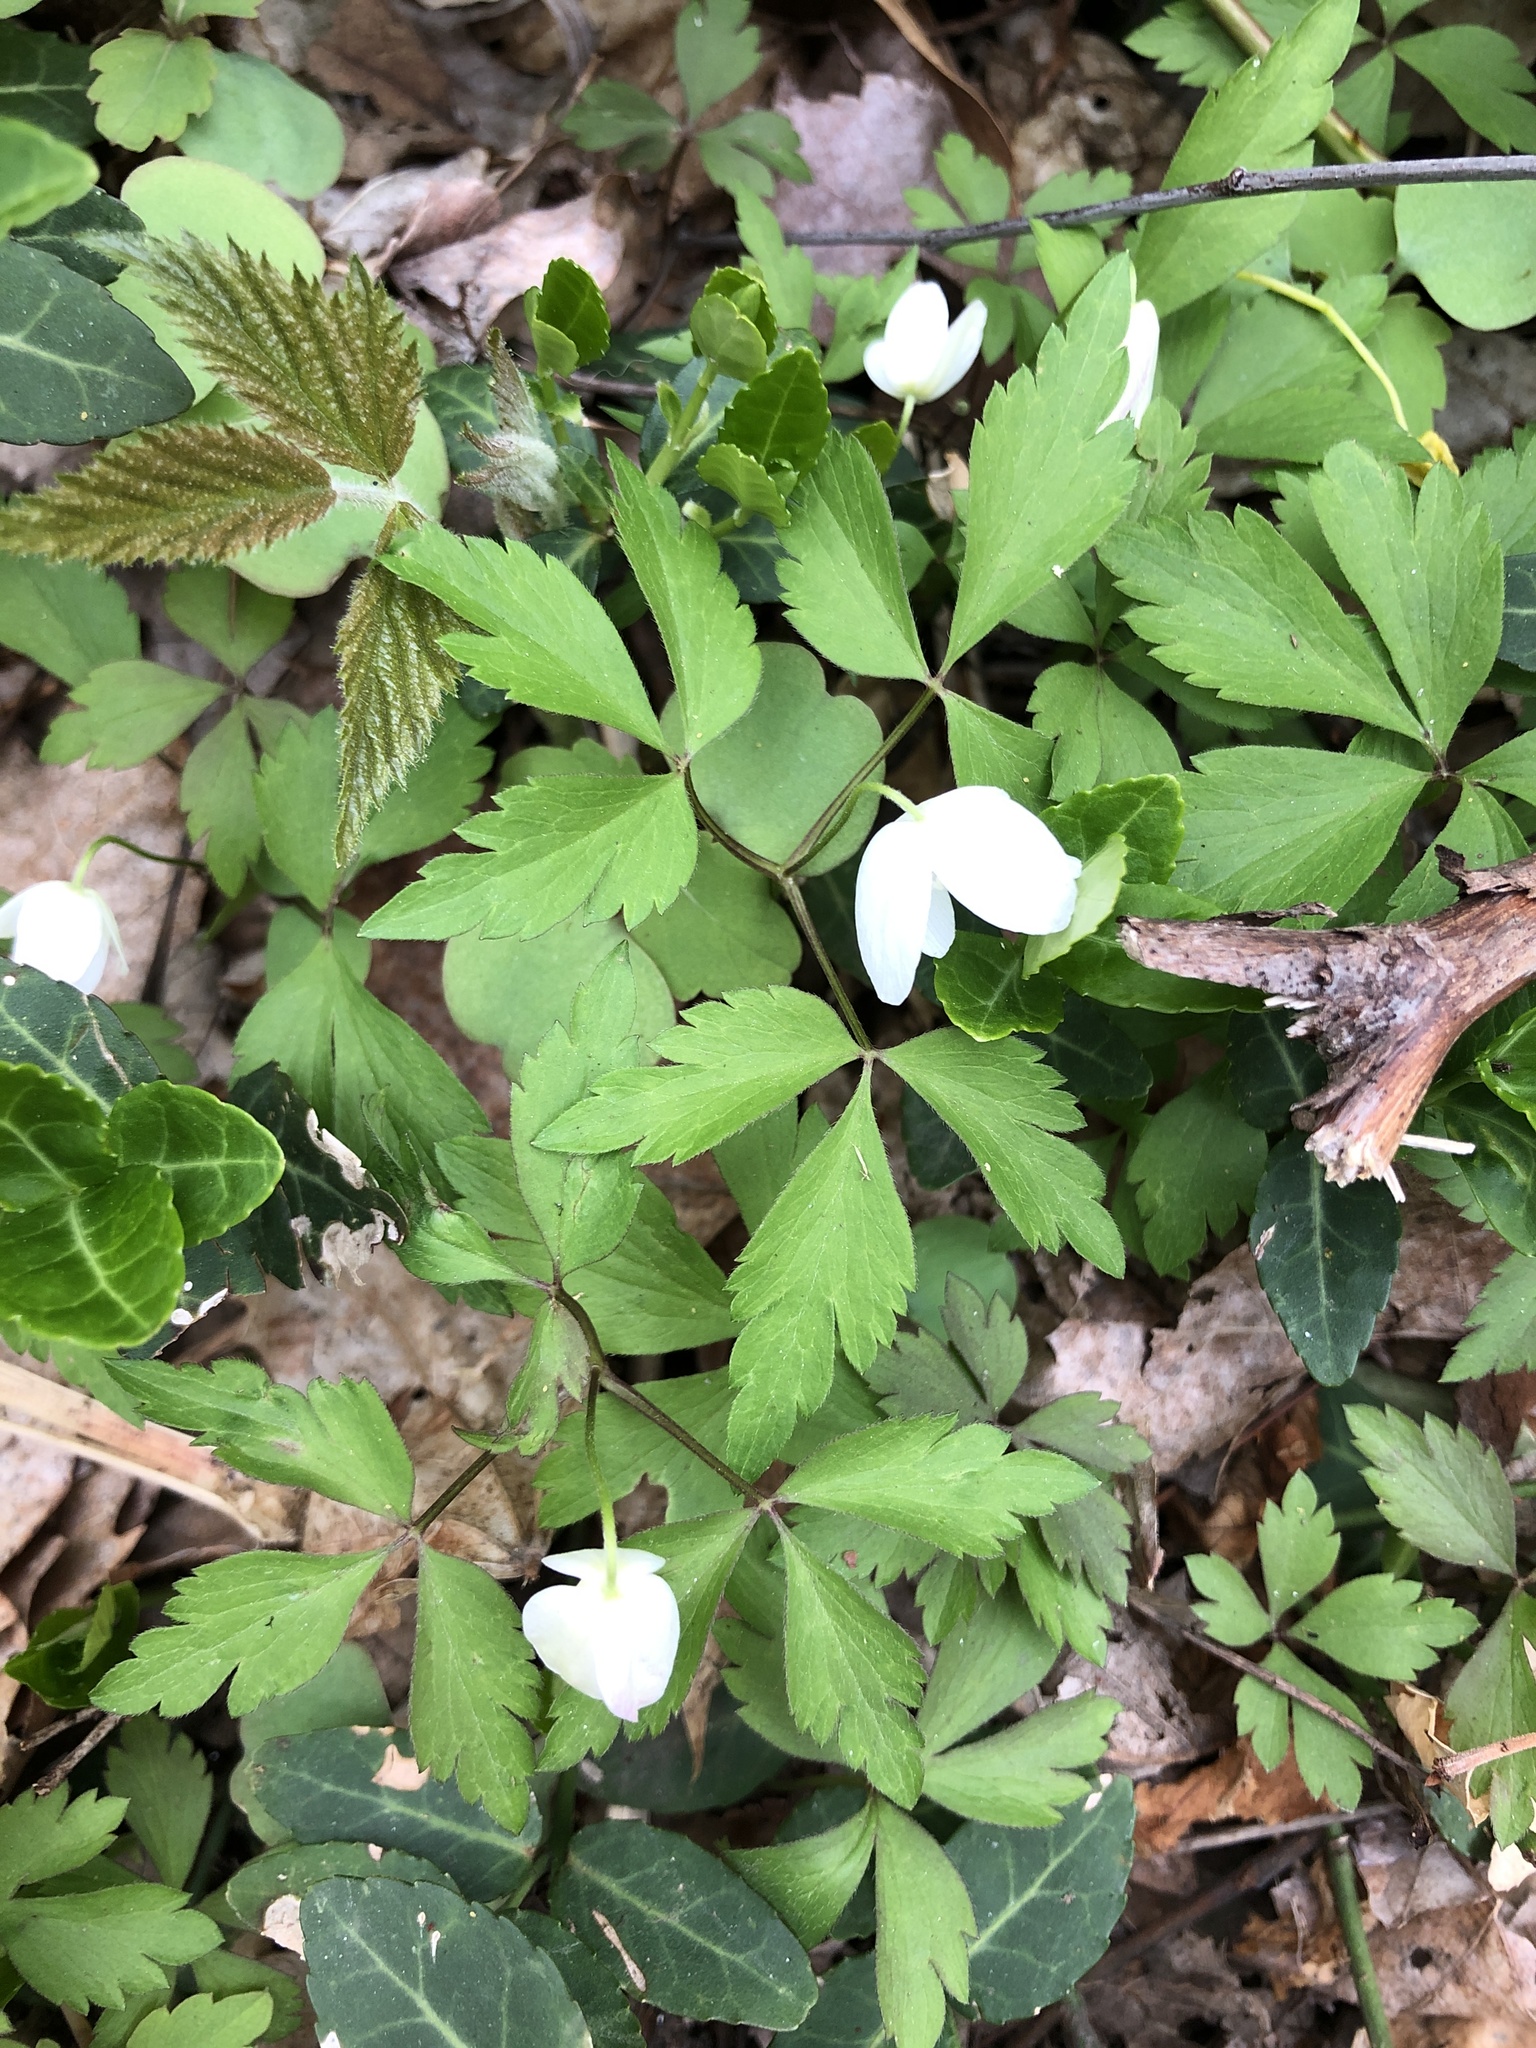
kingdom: Plantae
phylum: Tracheophyta
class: Magnoliopsida
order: Ranunculales
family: Ranunculaceae
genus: Anemone
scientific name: Anemone quinquefolia
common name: Wood anemone
